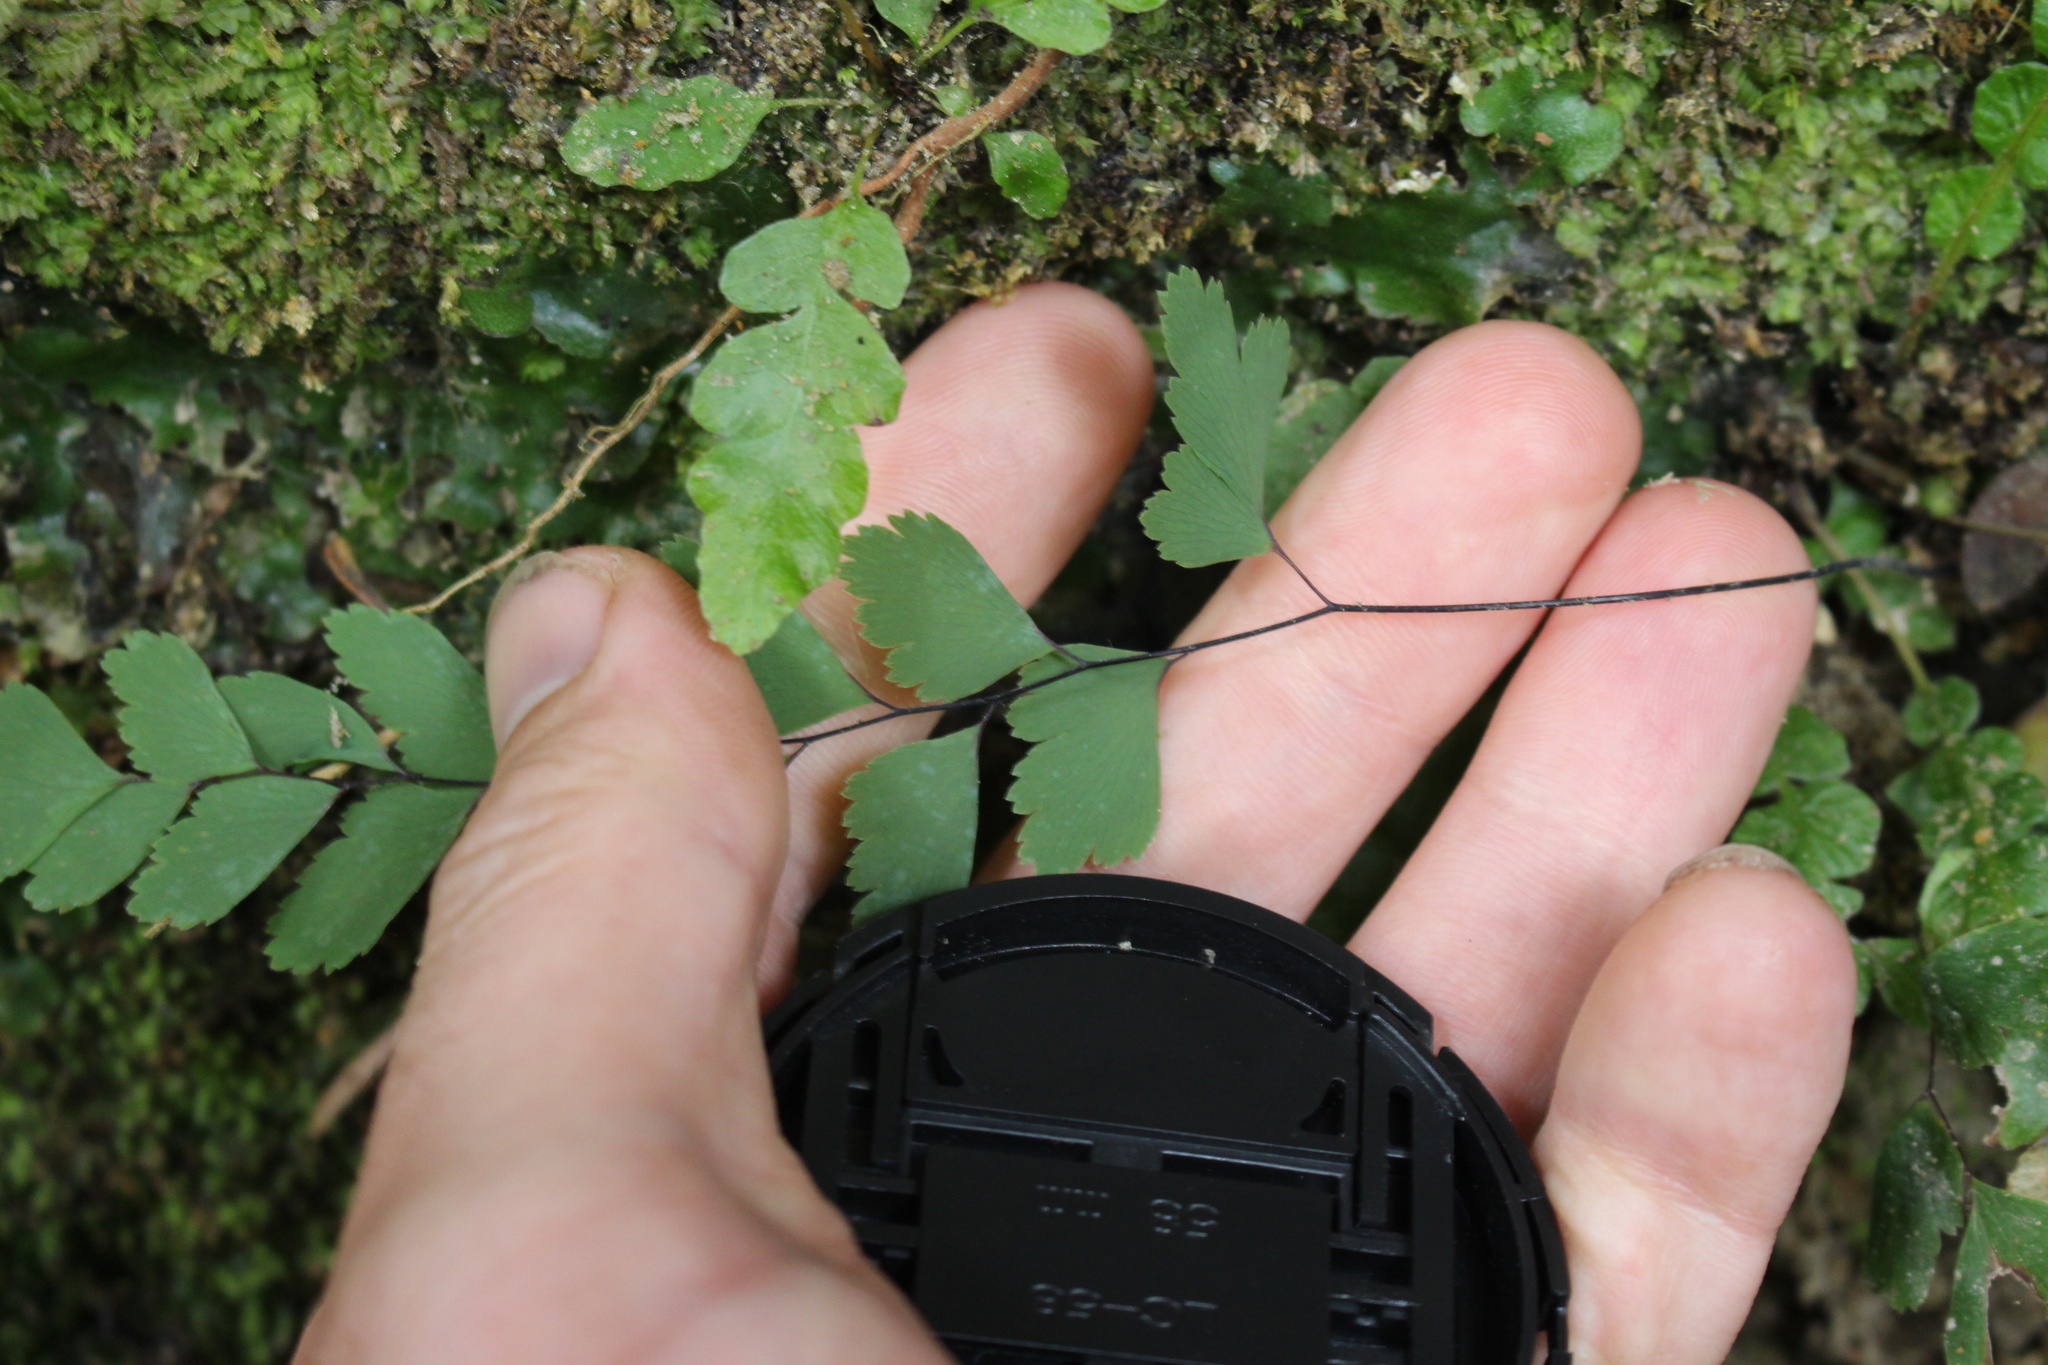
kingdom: Plantae
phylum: Tracheophyta
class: Polypodiopsida
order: Polypodiales
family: Pteridaceae
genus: Adiantum
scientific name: Adiantum cunninghamii
